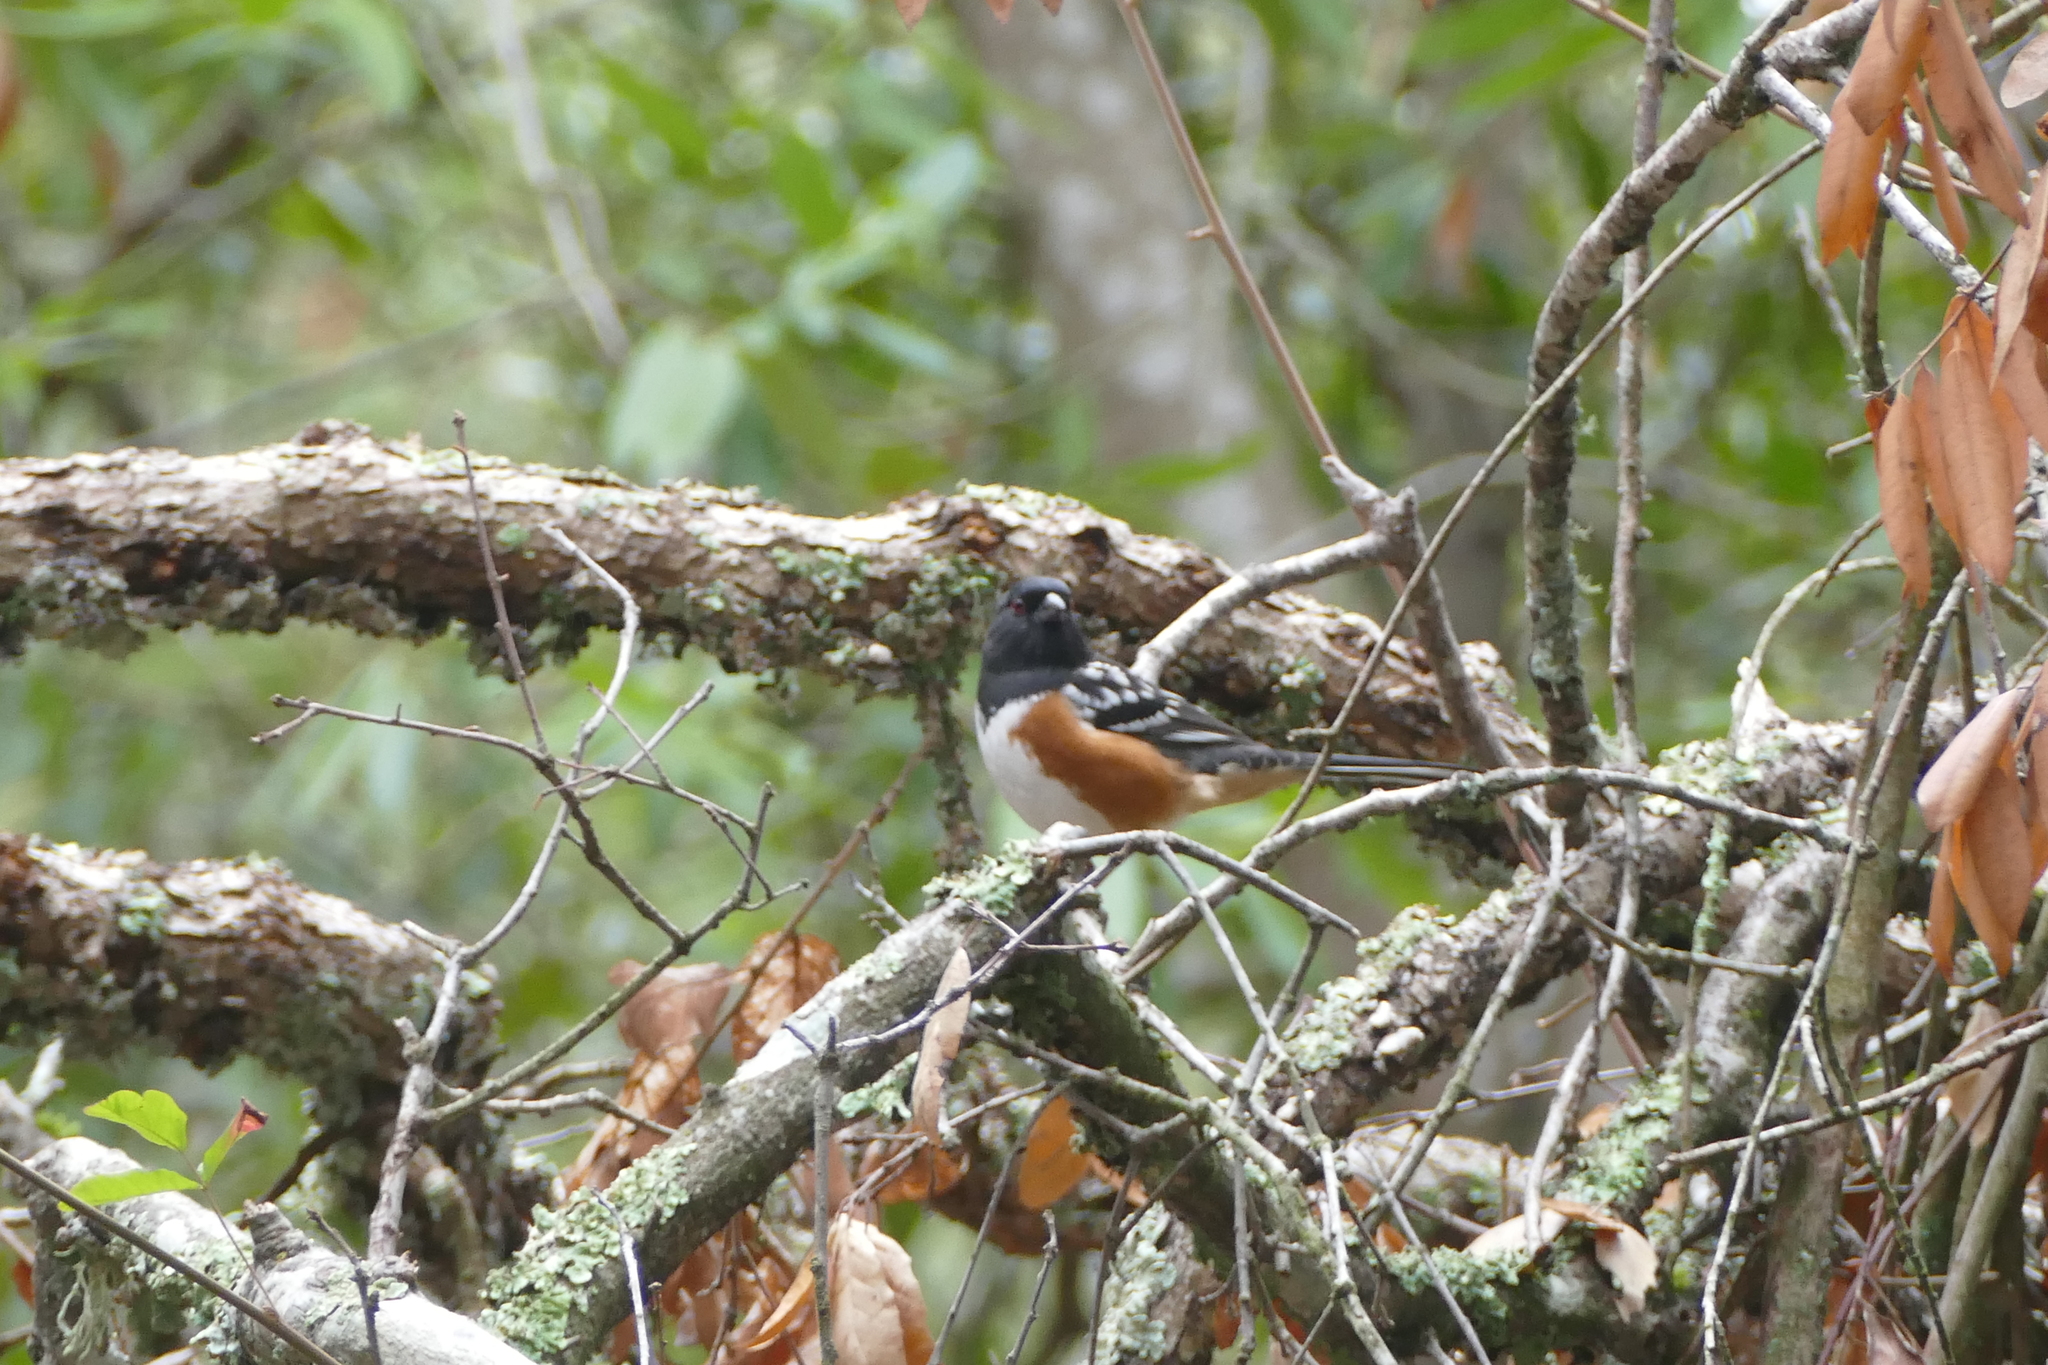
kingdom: Animalia
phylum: Chordata
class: Aves
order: Passeriformes
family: Passerellidae
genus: Pipilo
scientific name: Pipilo maculatus
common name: Spotted towhee
